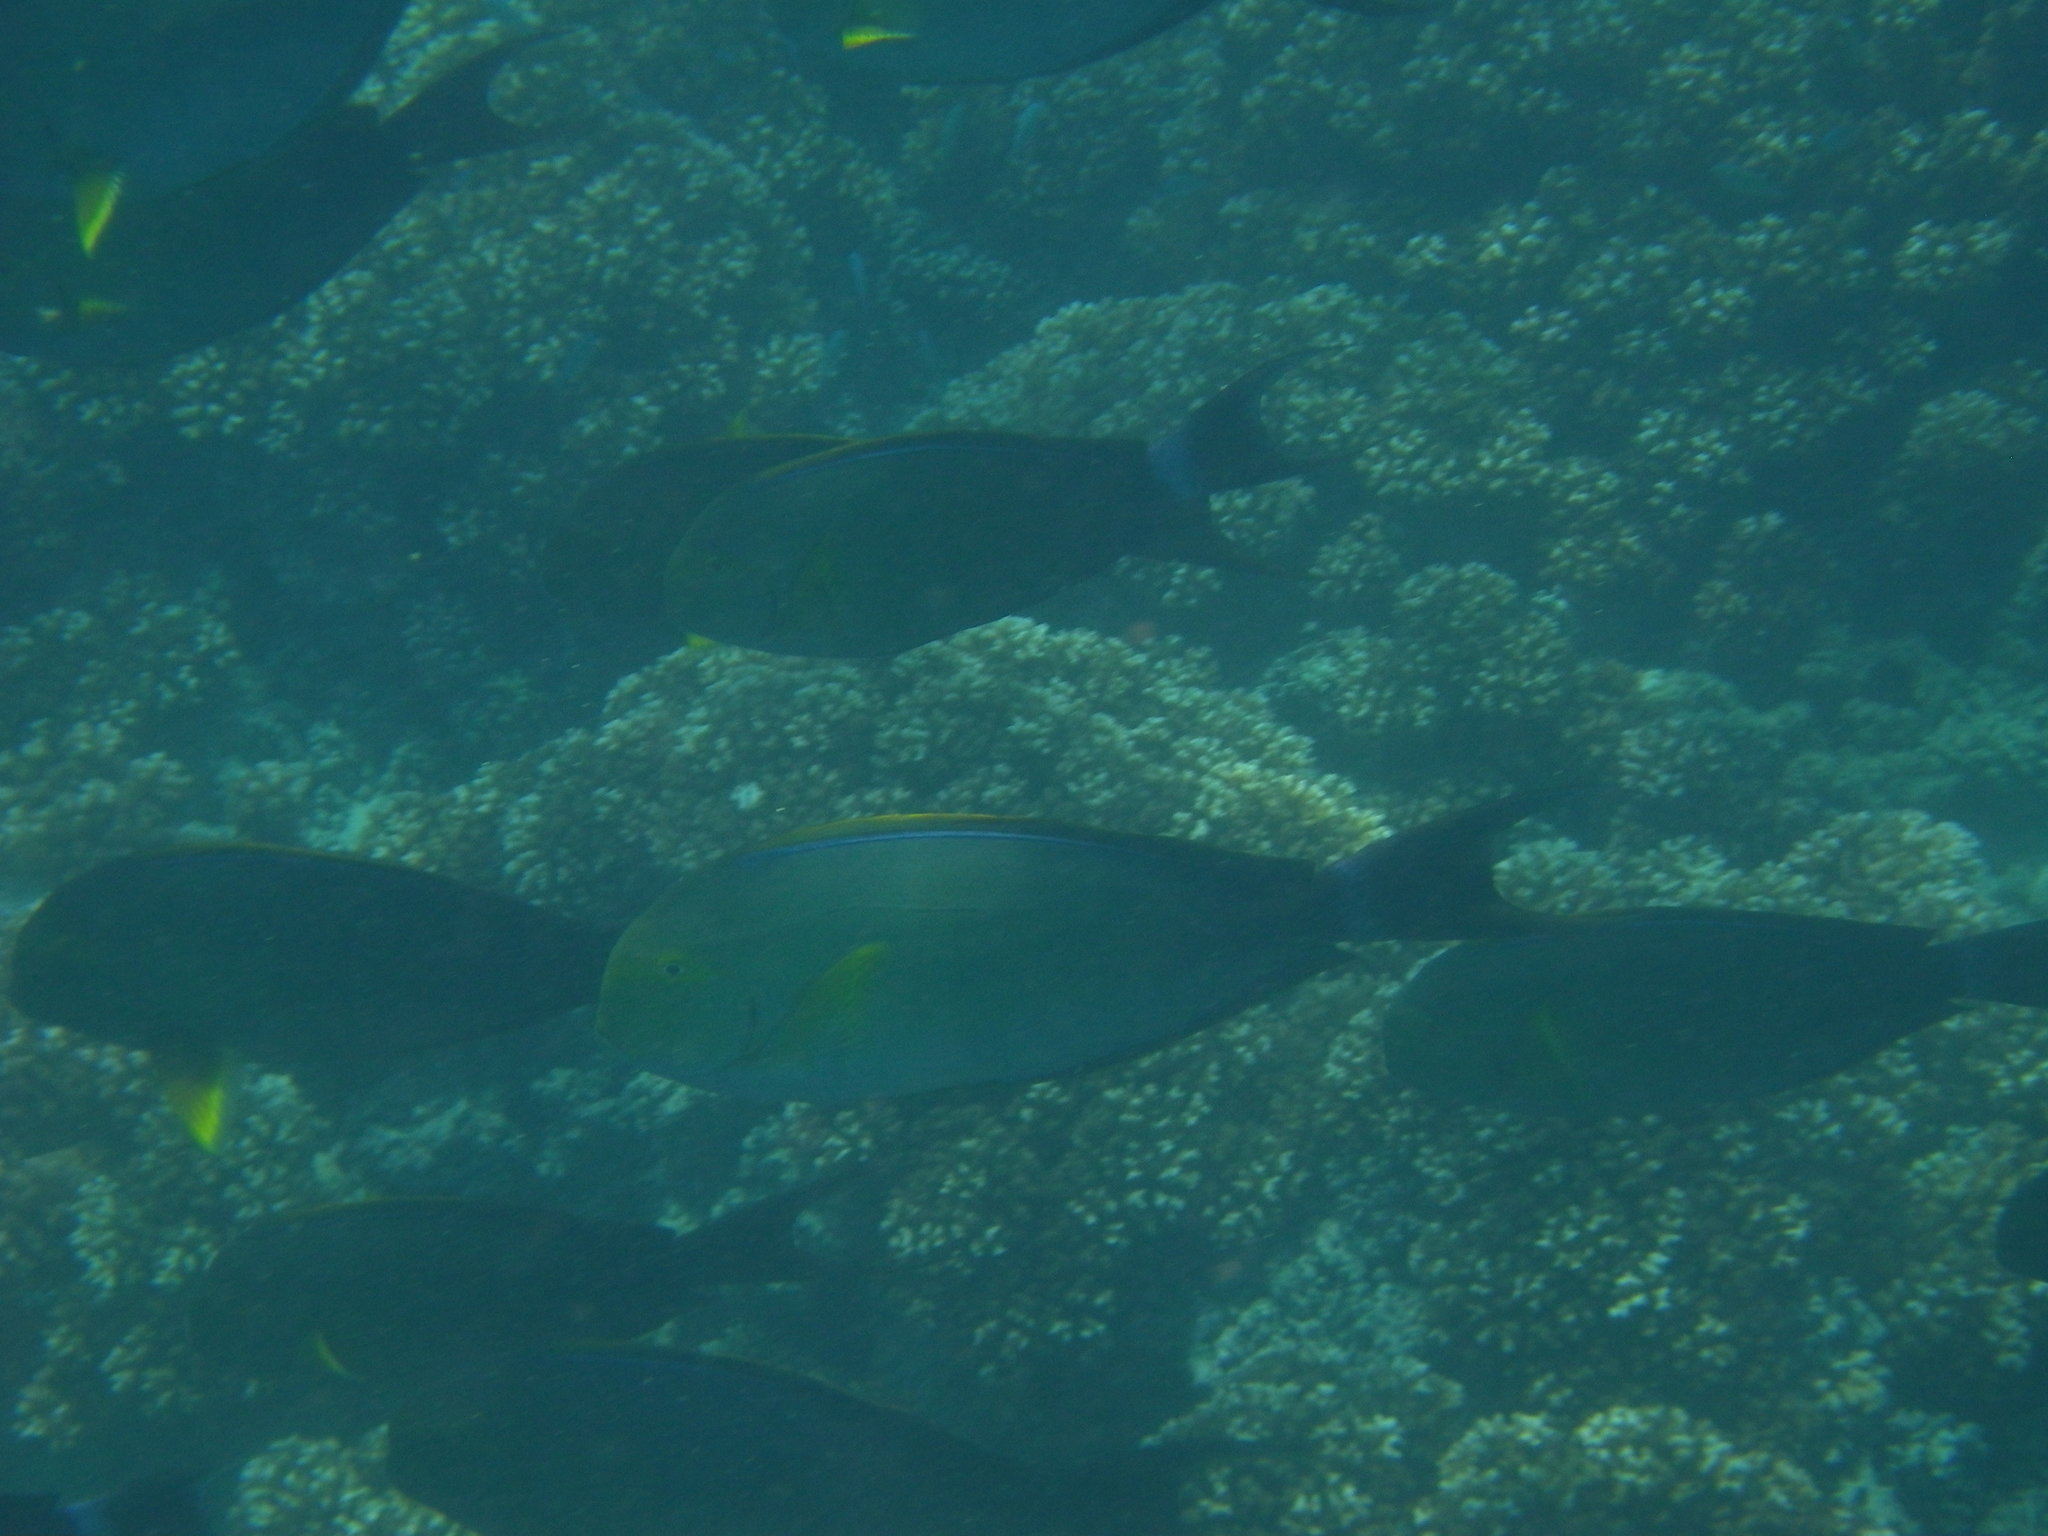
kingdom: Animalia
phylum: Chordata
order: Perciformes
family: Acanthuridae
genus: Acanthurus
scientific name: Acanthurus xanthopterus
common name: Cuvier's surgeonfish
